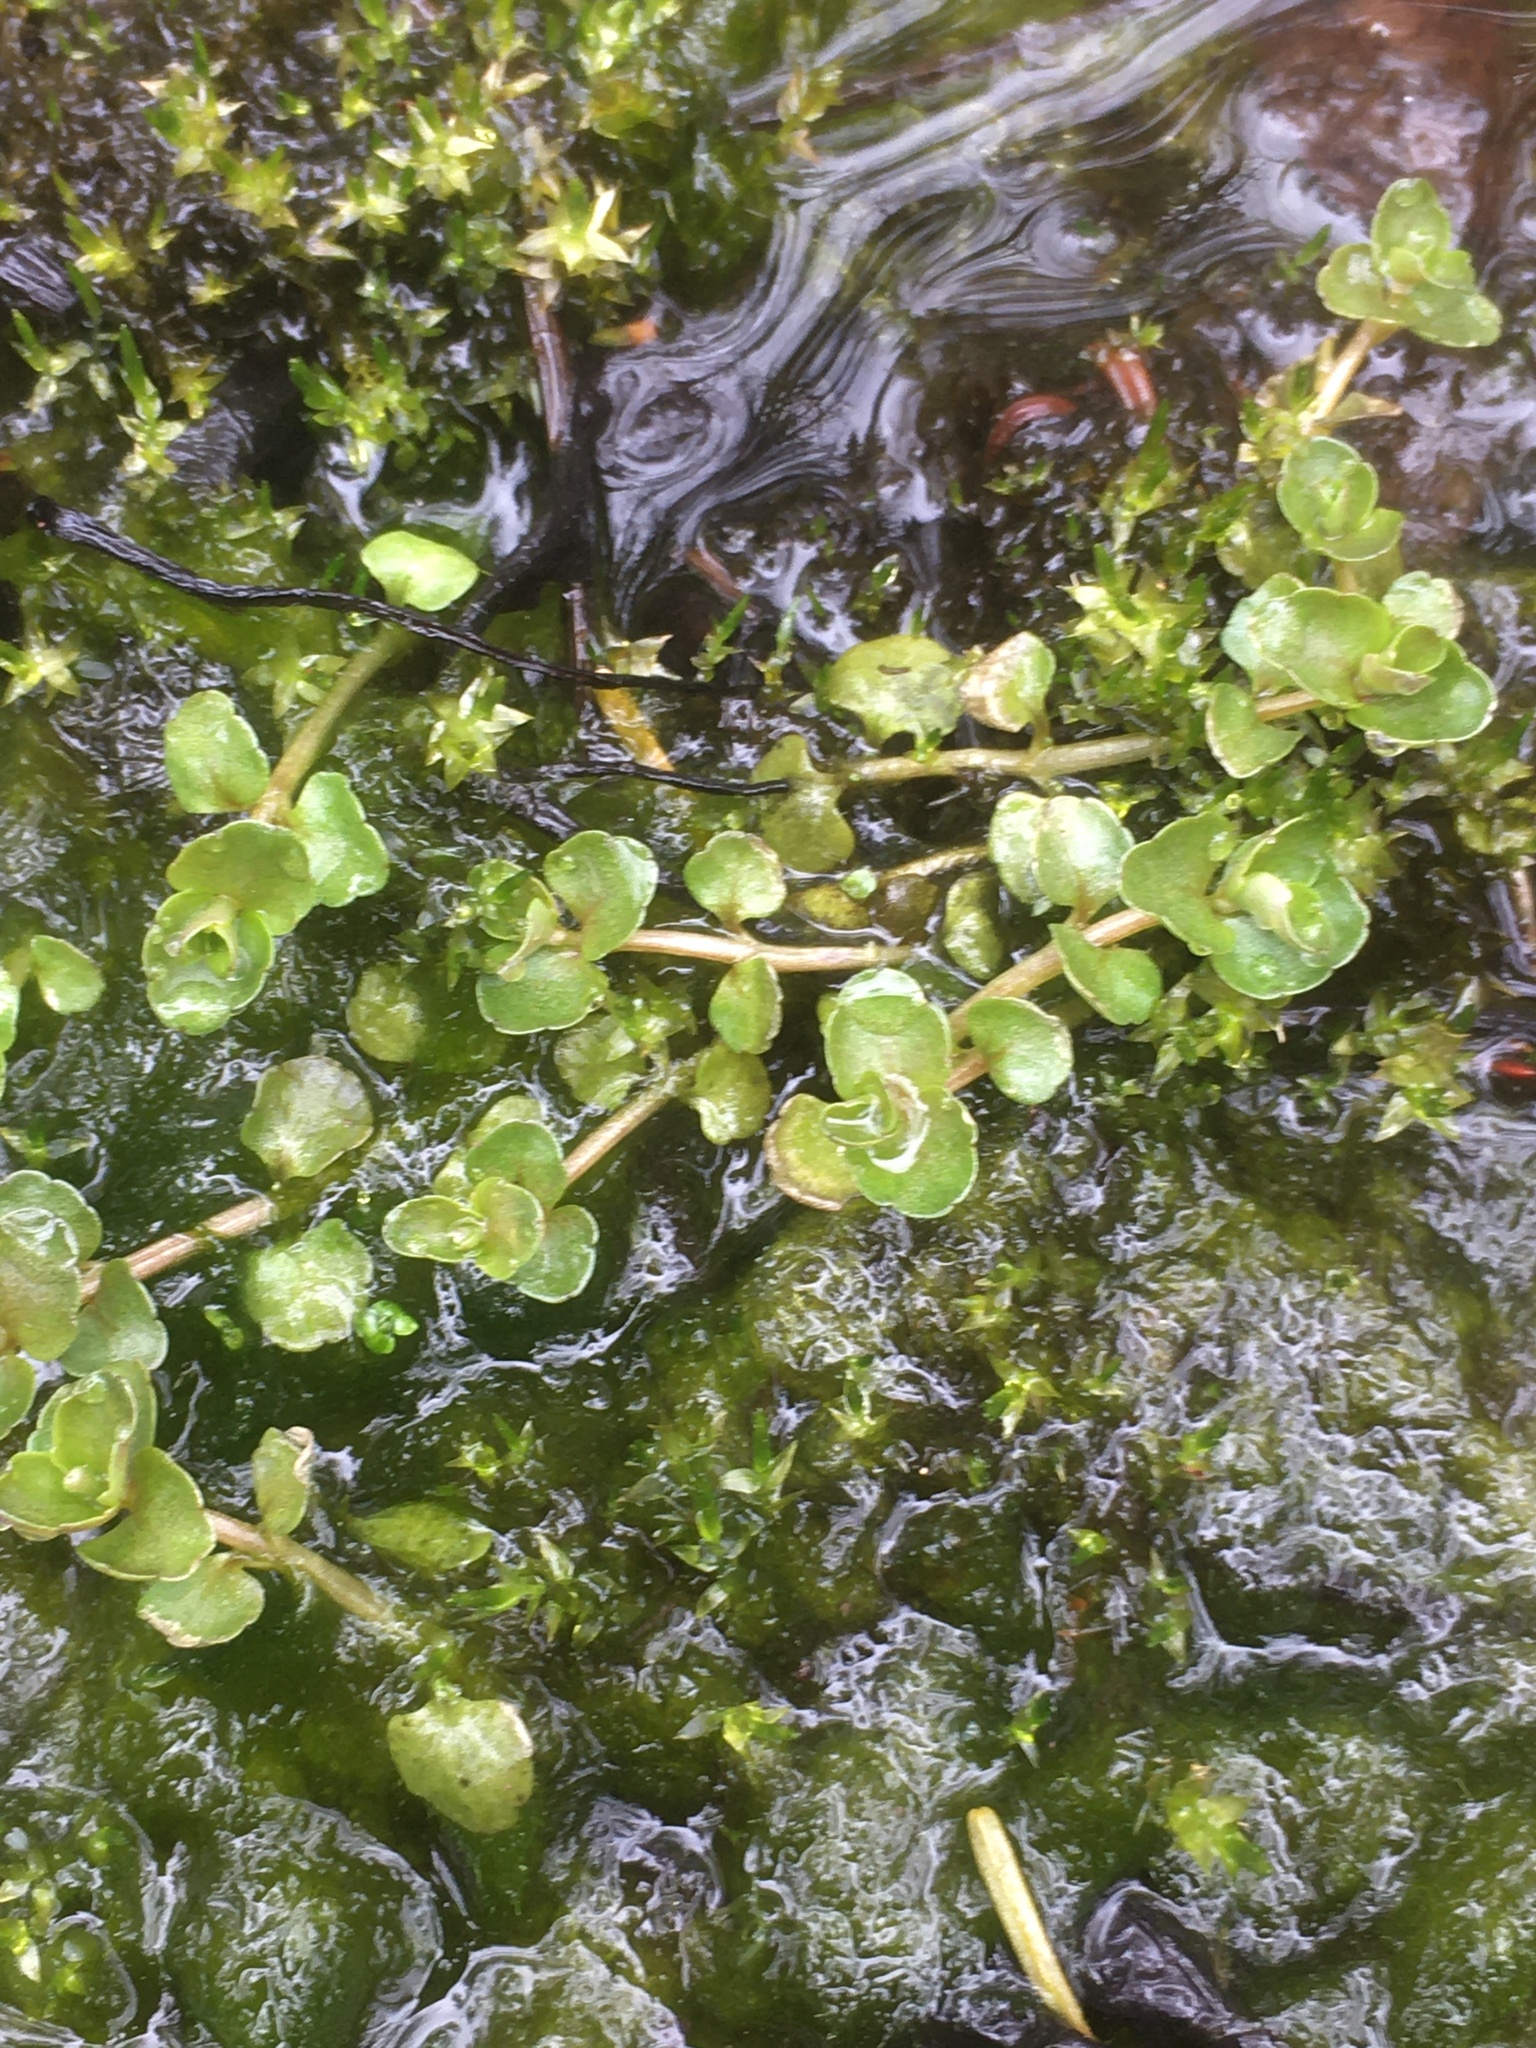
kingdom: Plantae
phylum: Tracheophyta
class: Magnoliopsida
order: Saxifragales
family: Saxifragaceae
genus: Chrysosplenium
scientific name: Chrysosplenium americanum
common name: American golden-saxifrage
